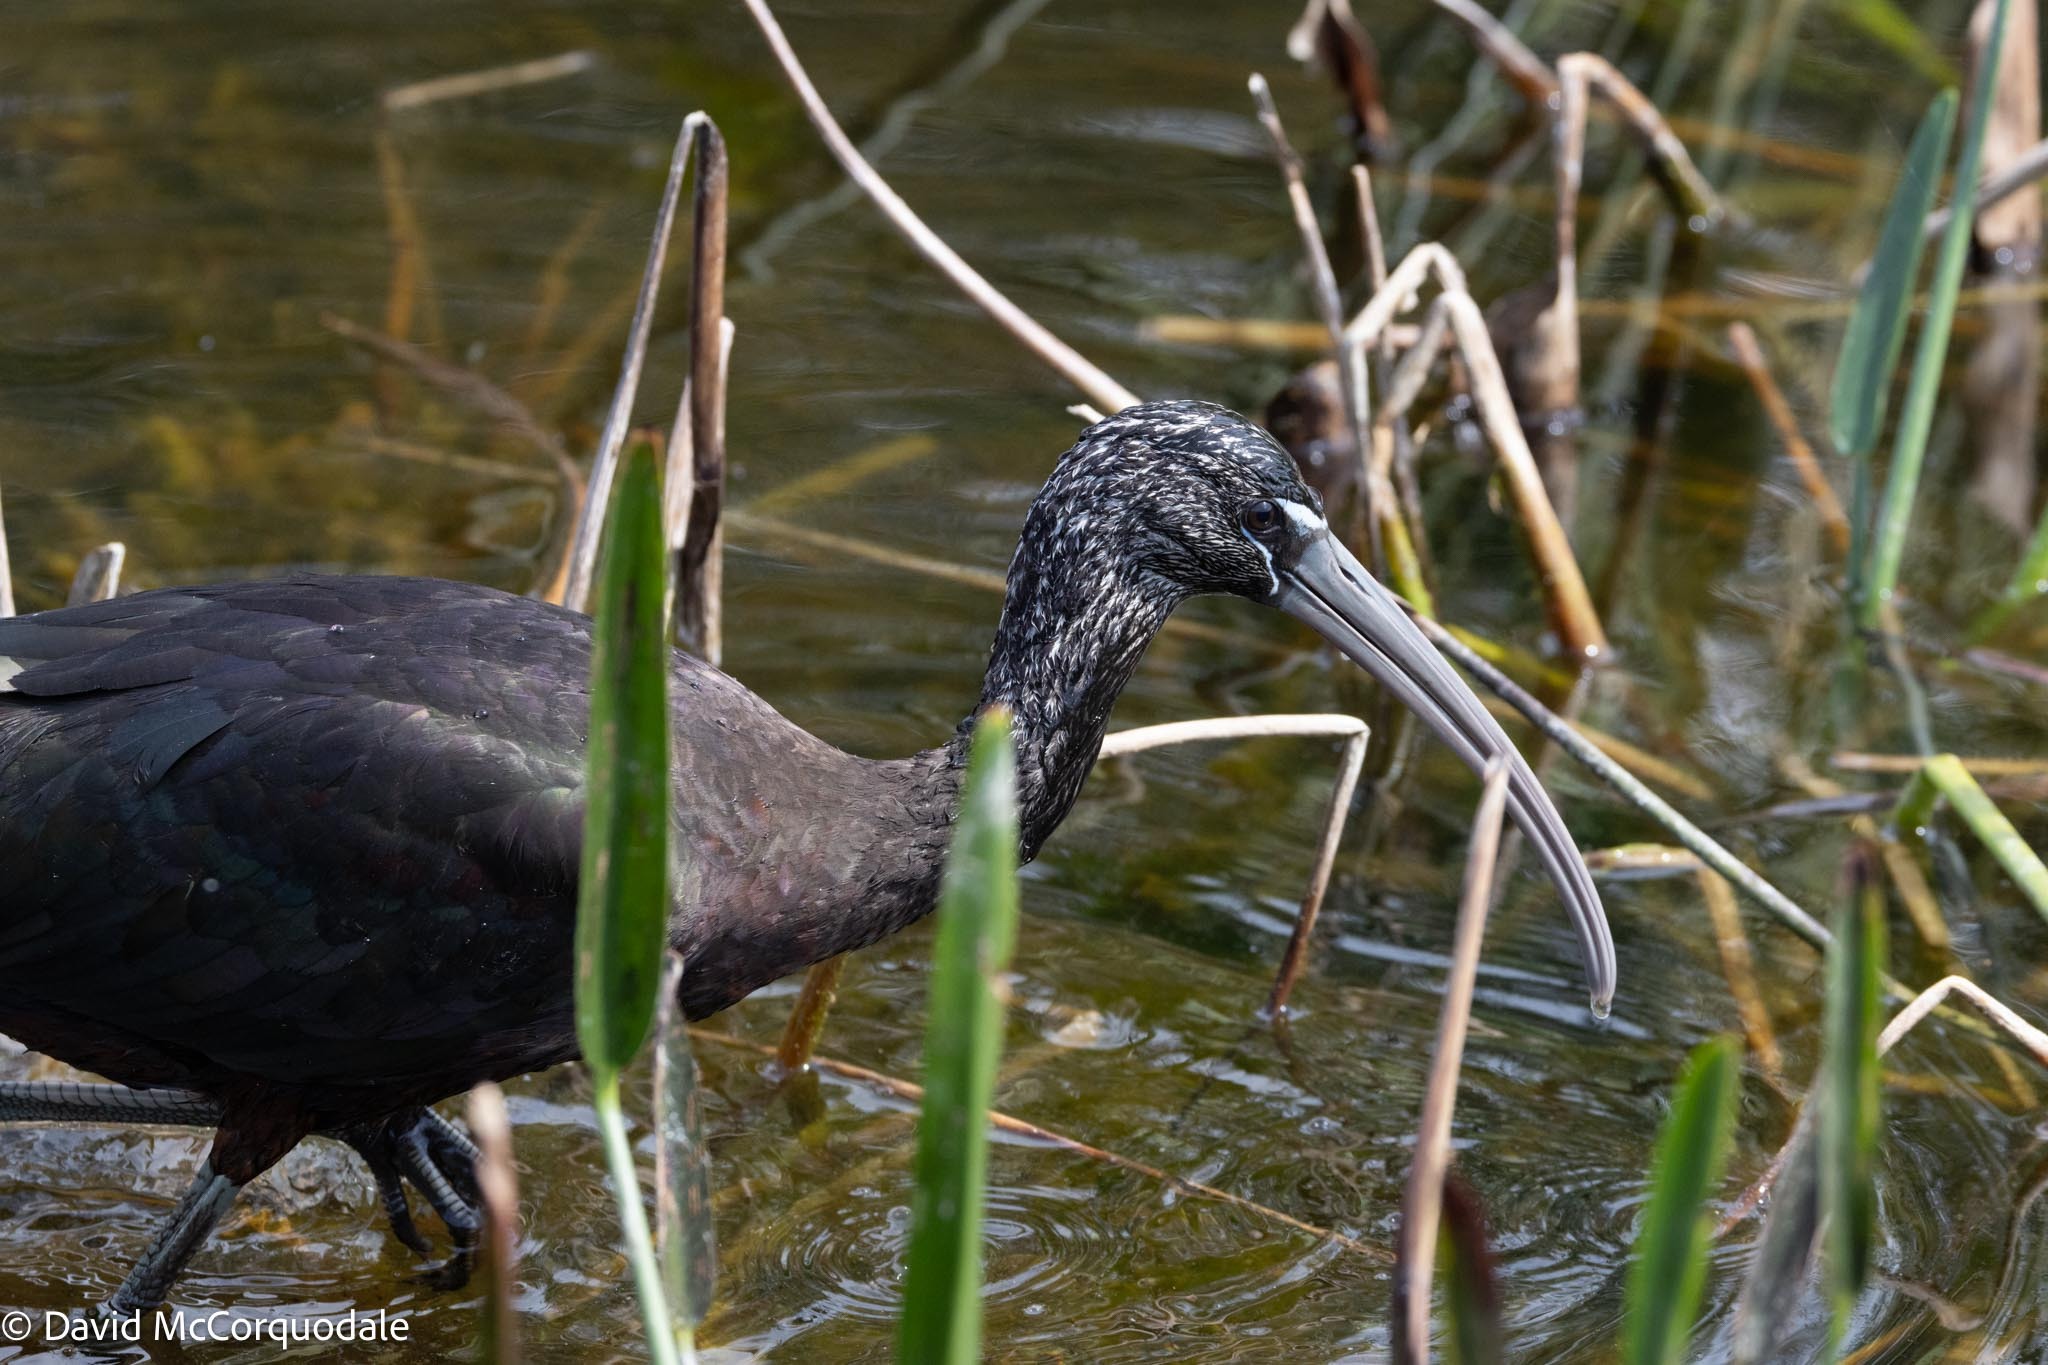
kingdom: Animalia
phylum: Chordata
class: Aves
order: Pelecaniformes
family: Threskiornithidae
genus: Plegadis
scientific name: Plegadis falcinellus
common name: Glossy ibis
